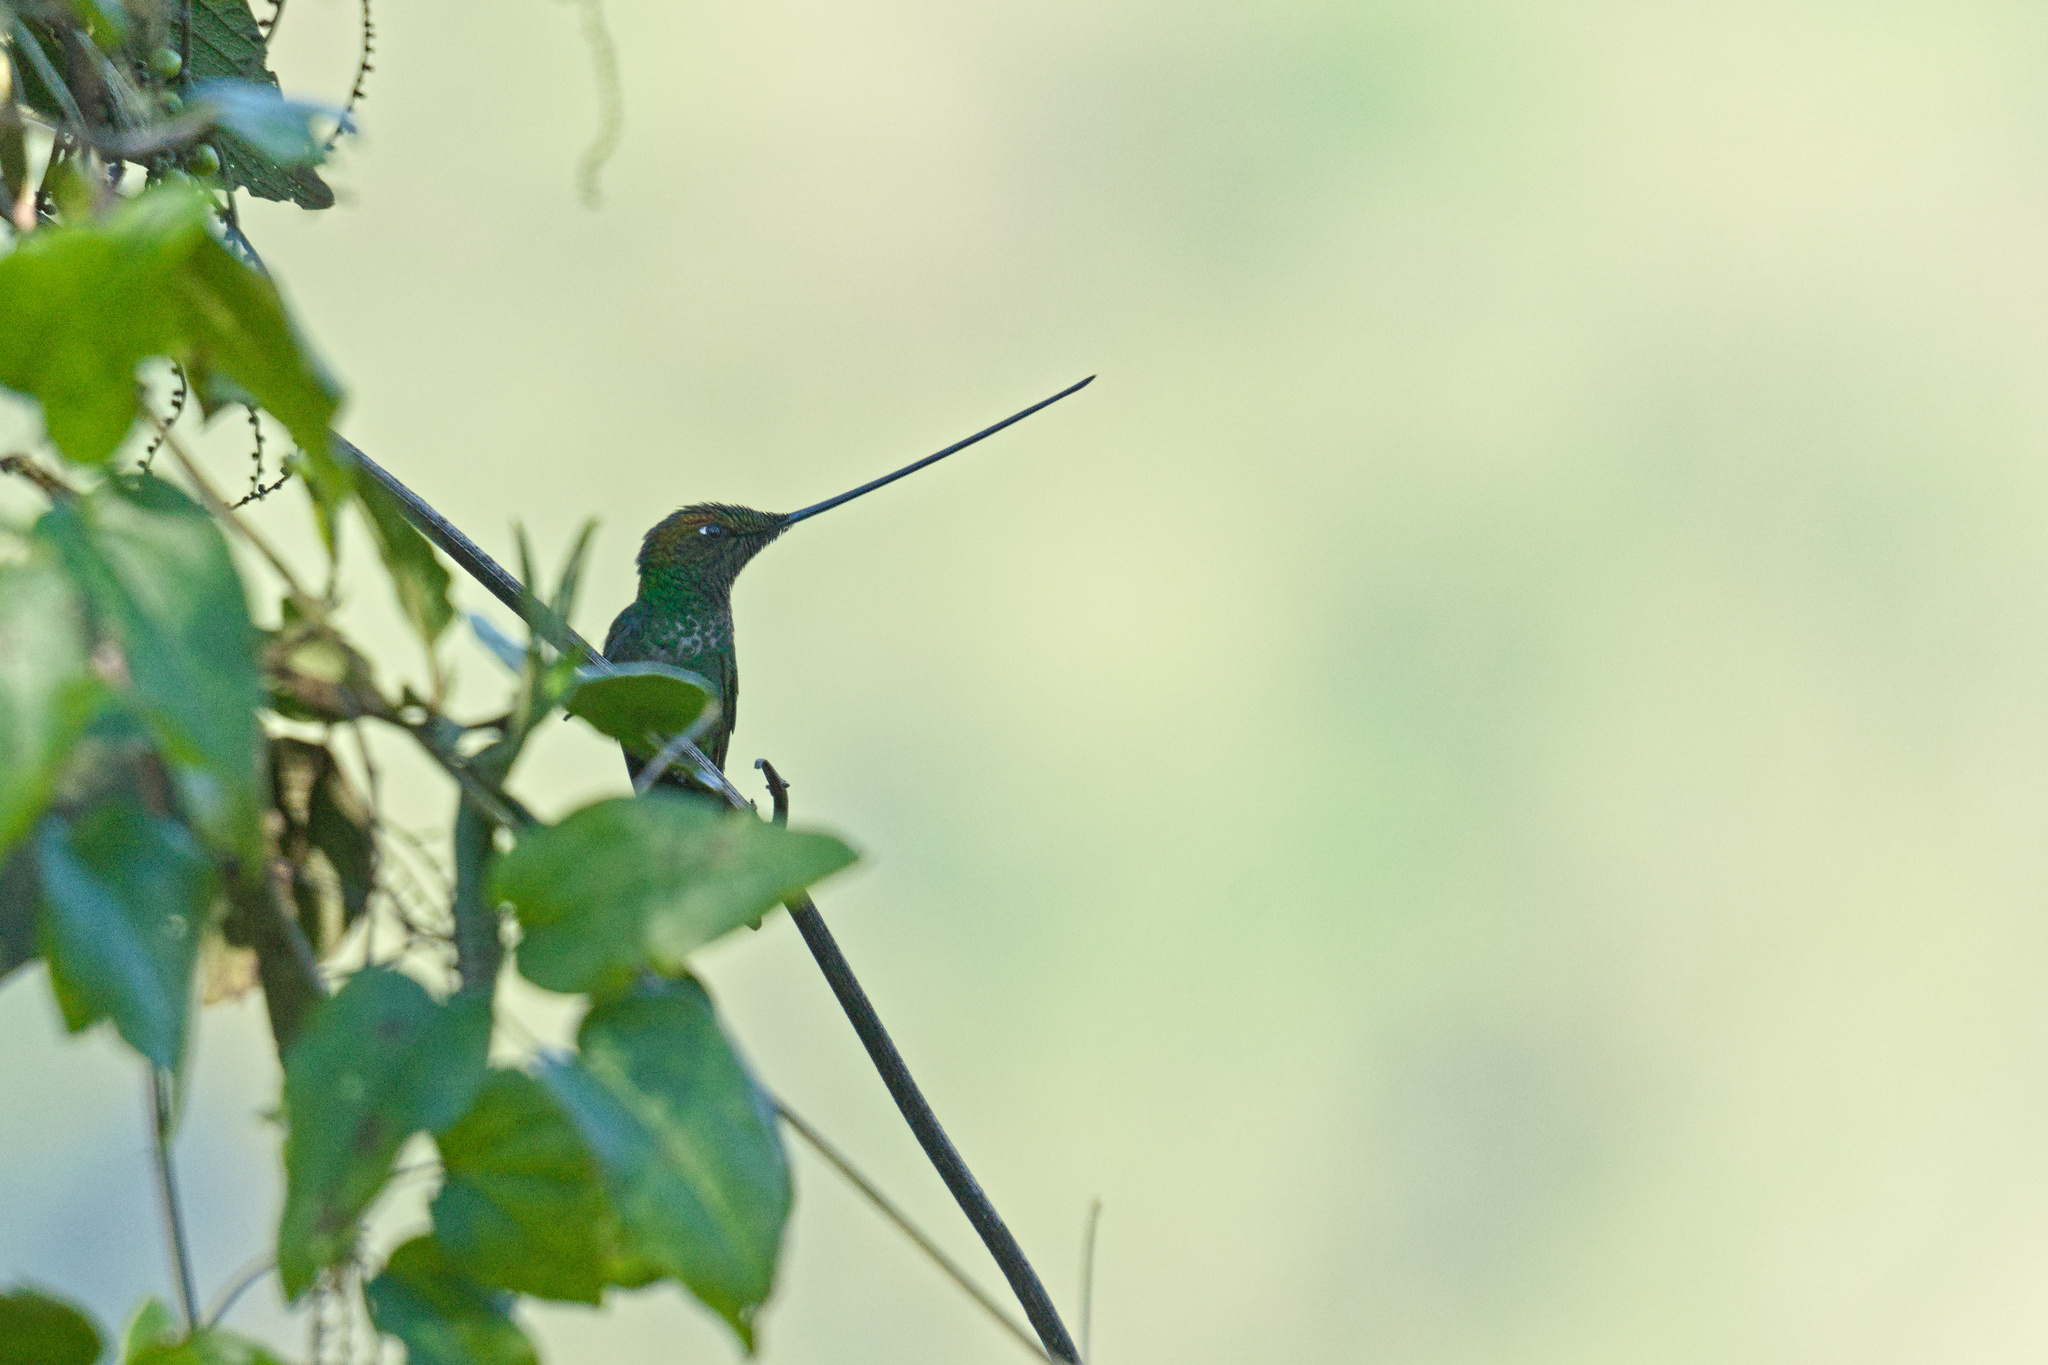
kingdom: Animalia
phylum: Chordata
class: Aves
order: Apodiformes
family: Trochilidae
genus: Ensifera
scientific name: Ensifera ensifera
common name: Sword-billed hummingbird
